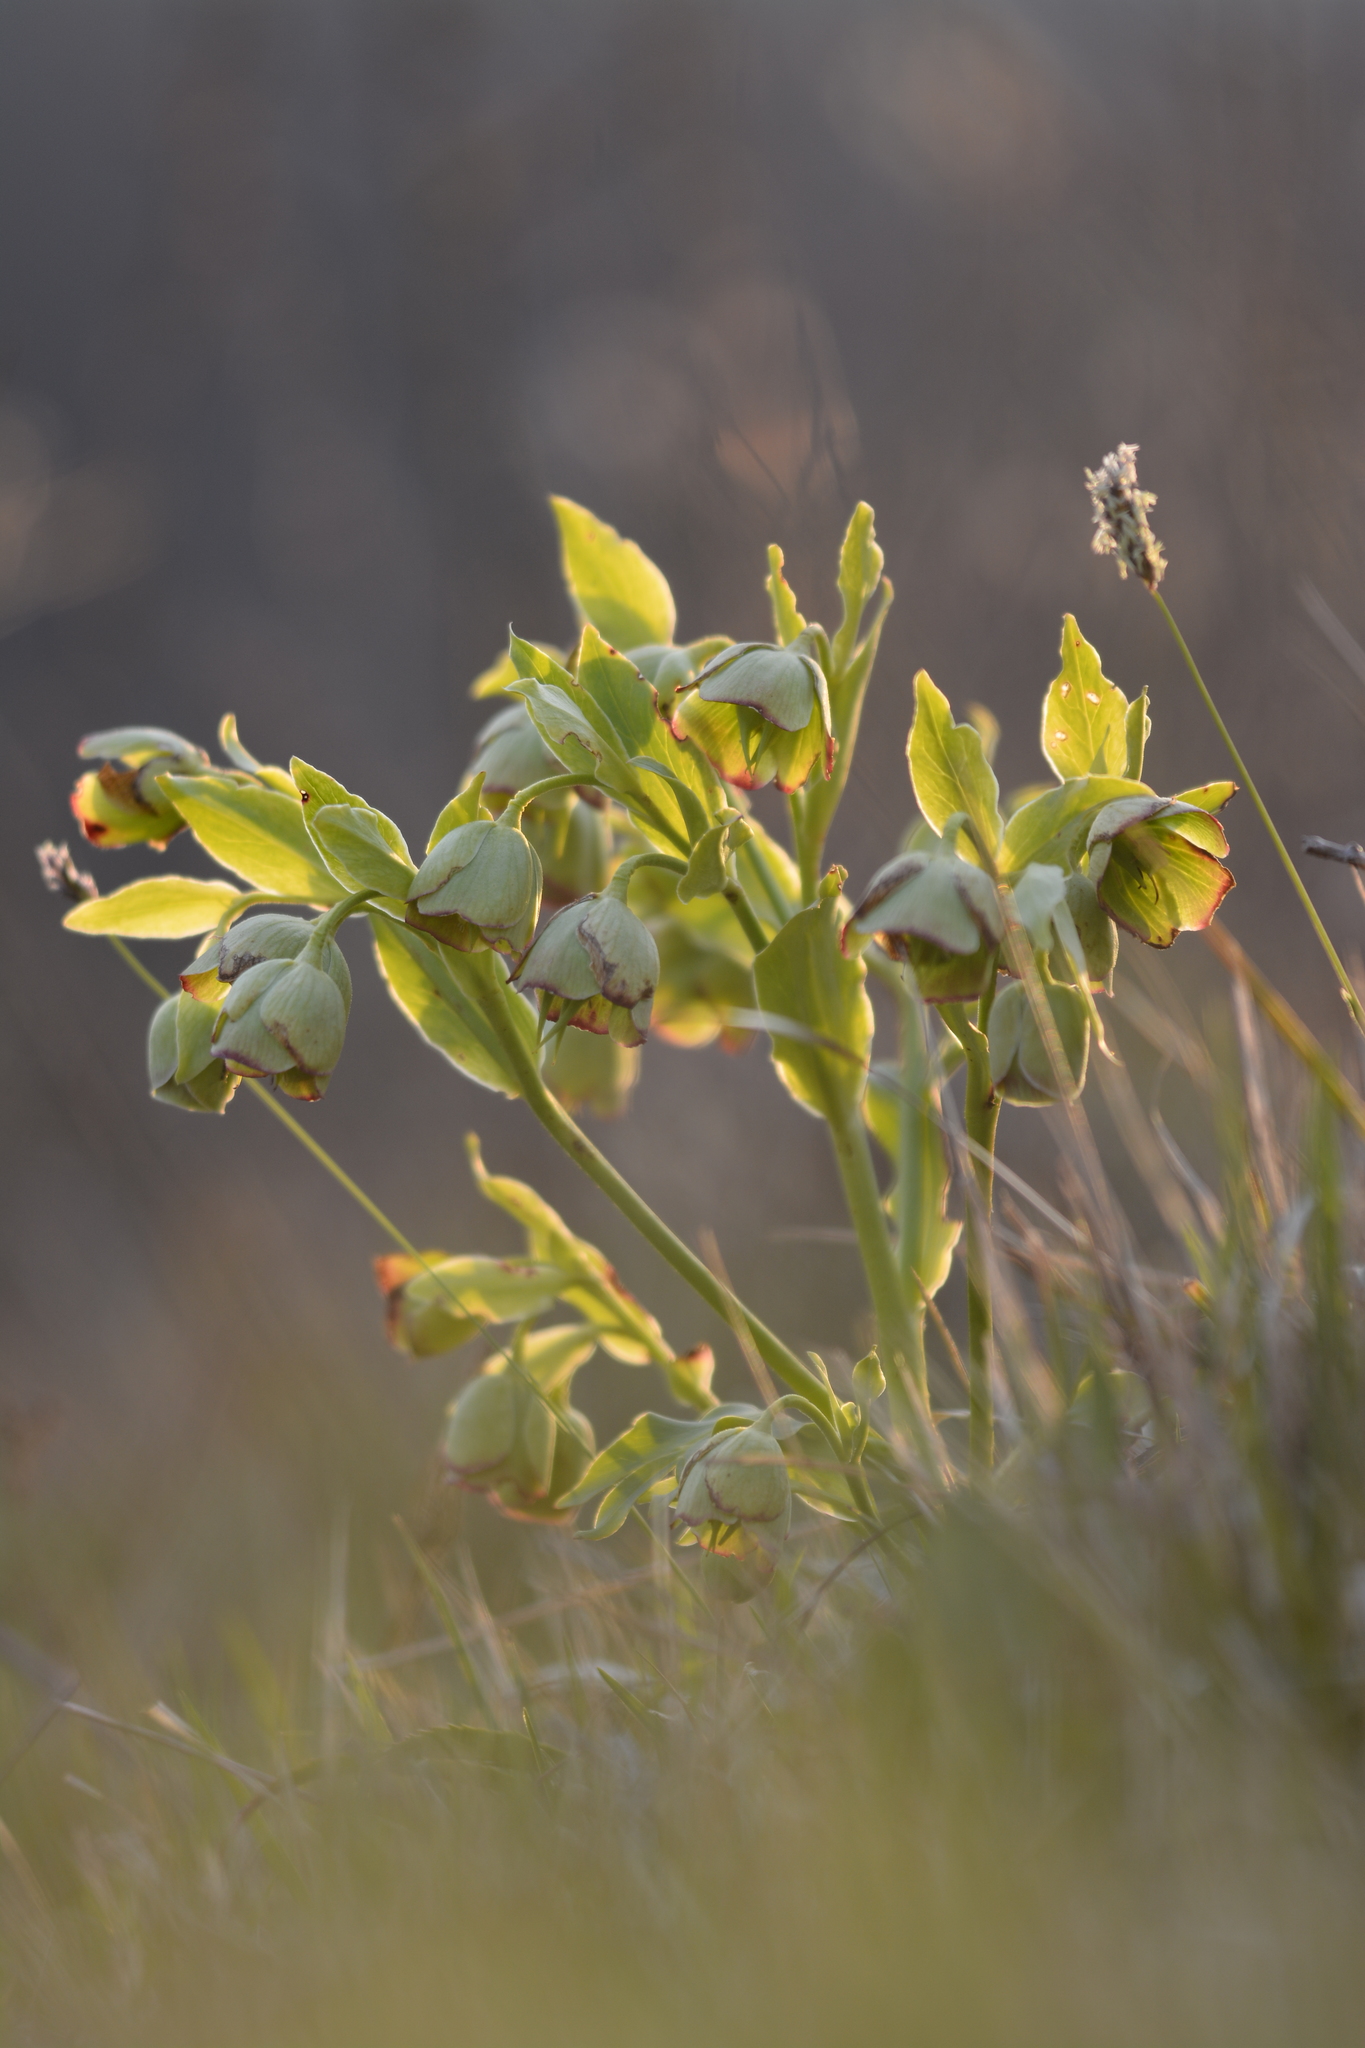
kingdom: Plantae
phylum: Tracheophyta
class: Magnoliopsida
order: Ranunculales
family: Ranunculaceae
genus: Helleborus
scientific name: Helleborus foetidus
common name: Stinking hellebore
